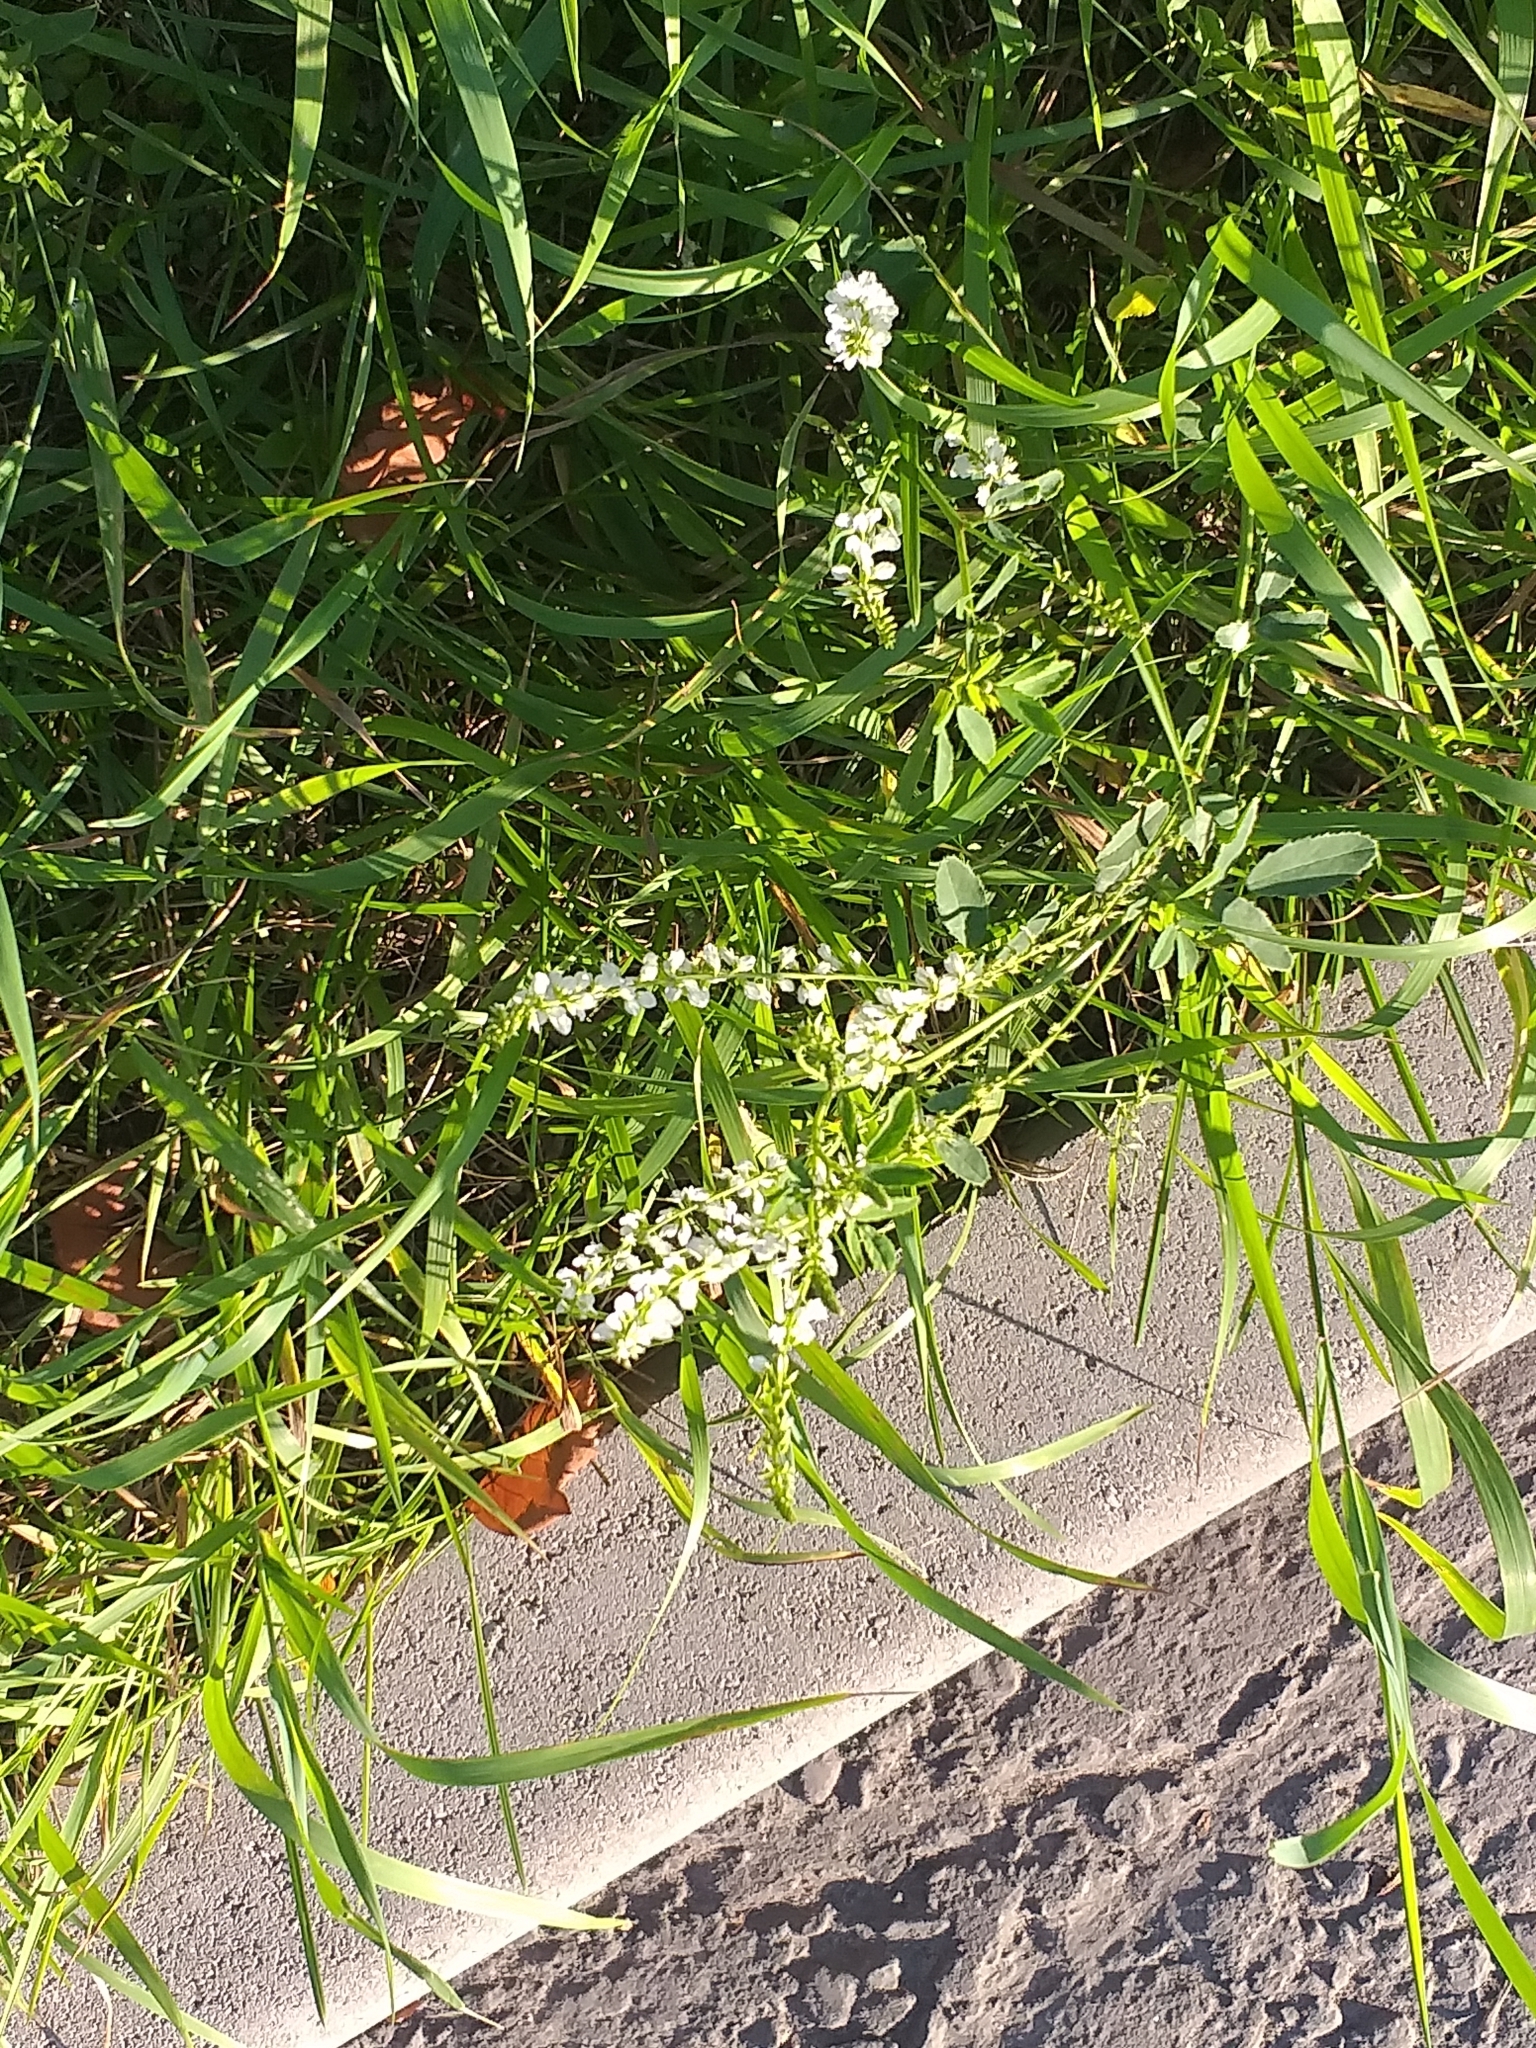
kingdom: Plantae
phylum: Tracheophyta
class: Magnoliopsida
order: Fabales
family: Fabaceae
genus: Melilotus
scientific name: Melilotus albus
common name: White melilot
